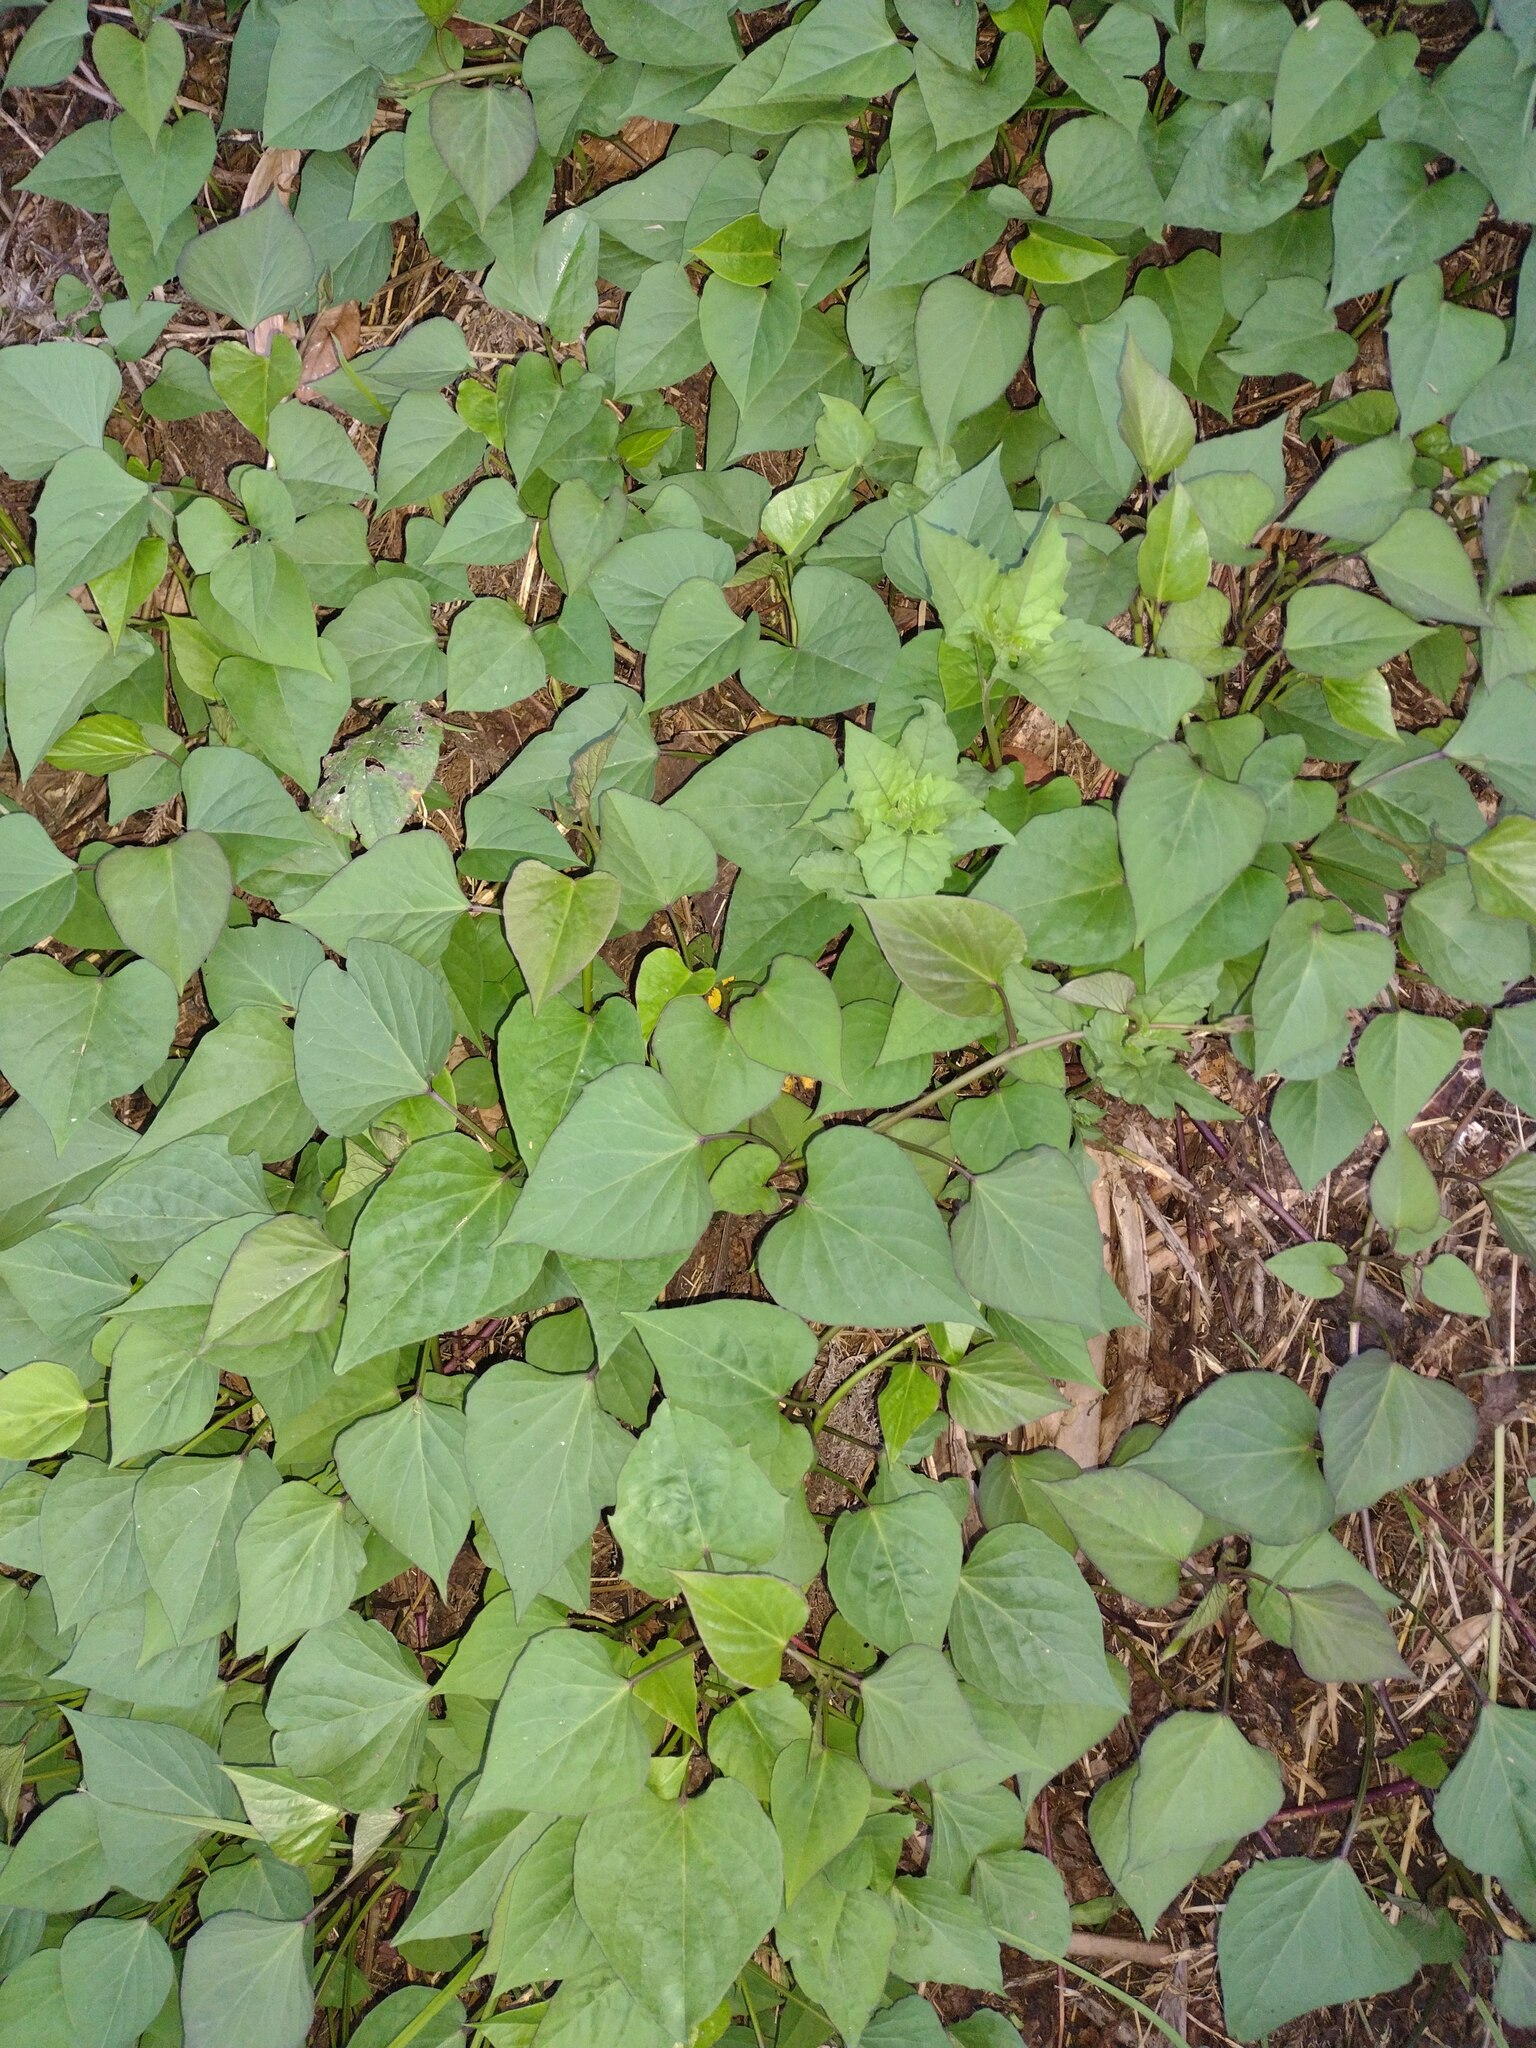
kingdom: Plantae
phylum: Tracheophyta
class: Magnoliopsida
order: Solanales
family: Convolvulaceae
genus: Ipomoea
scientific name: Ipomoea batatas
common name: Sweet-potato
